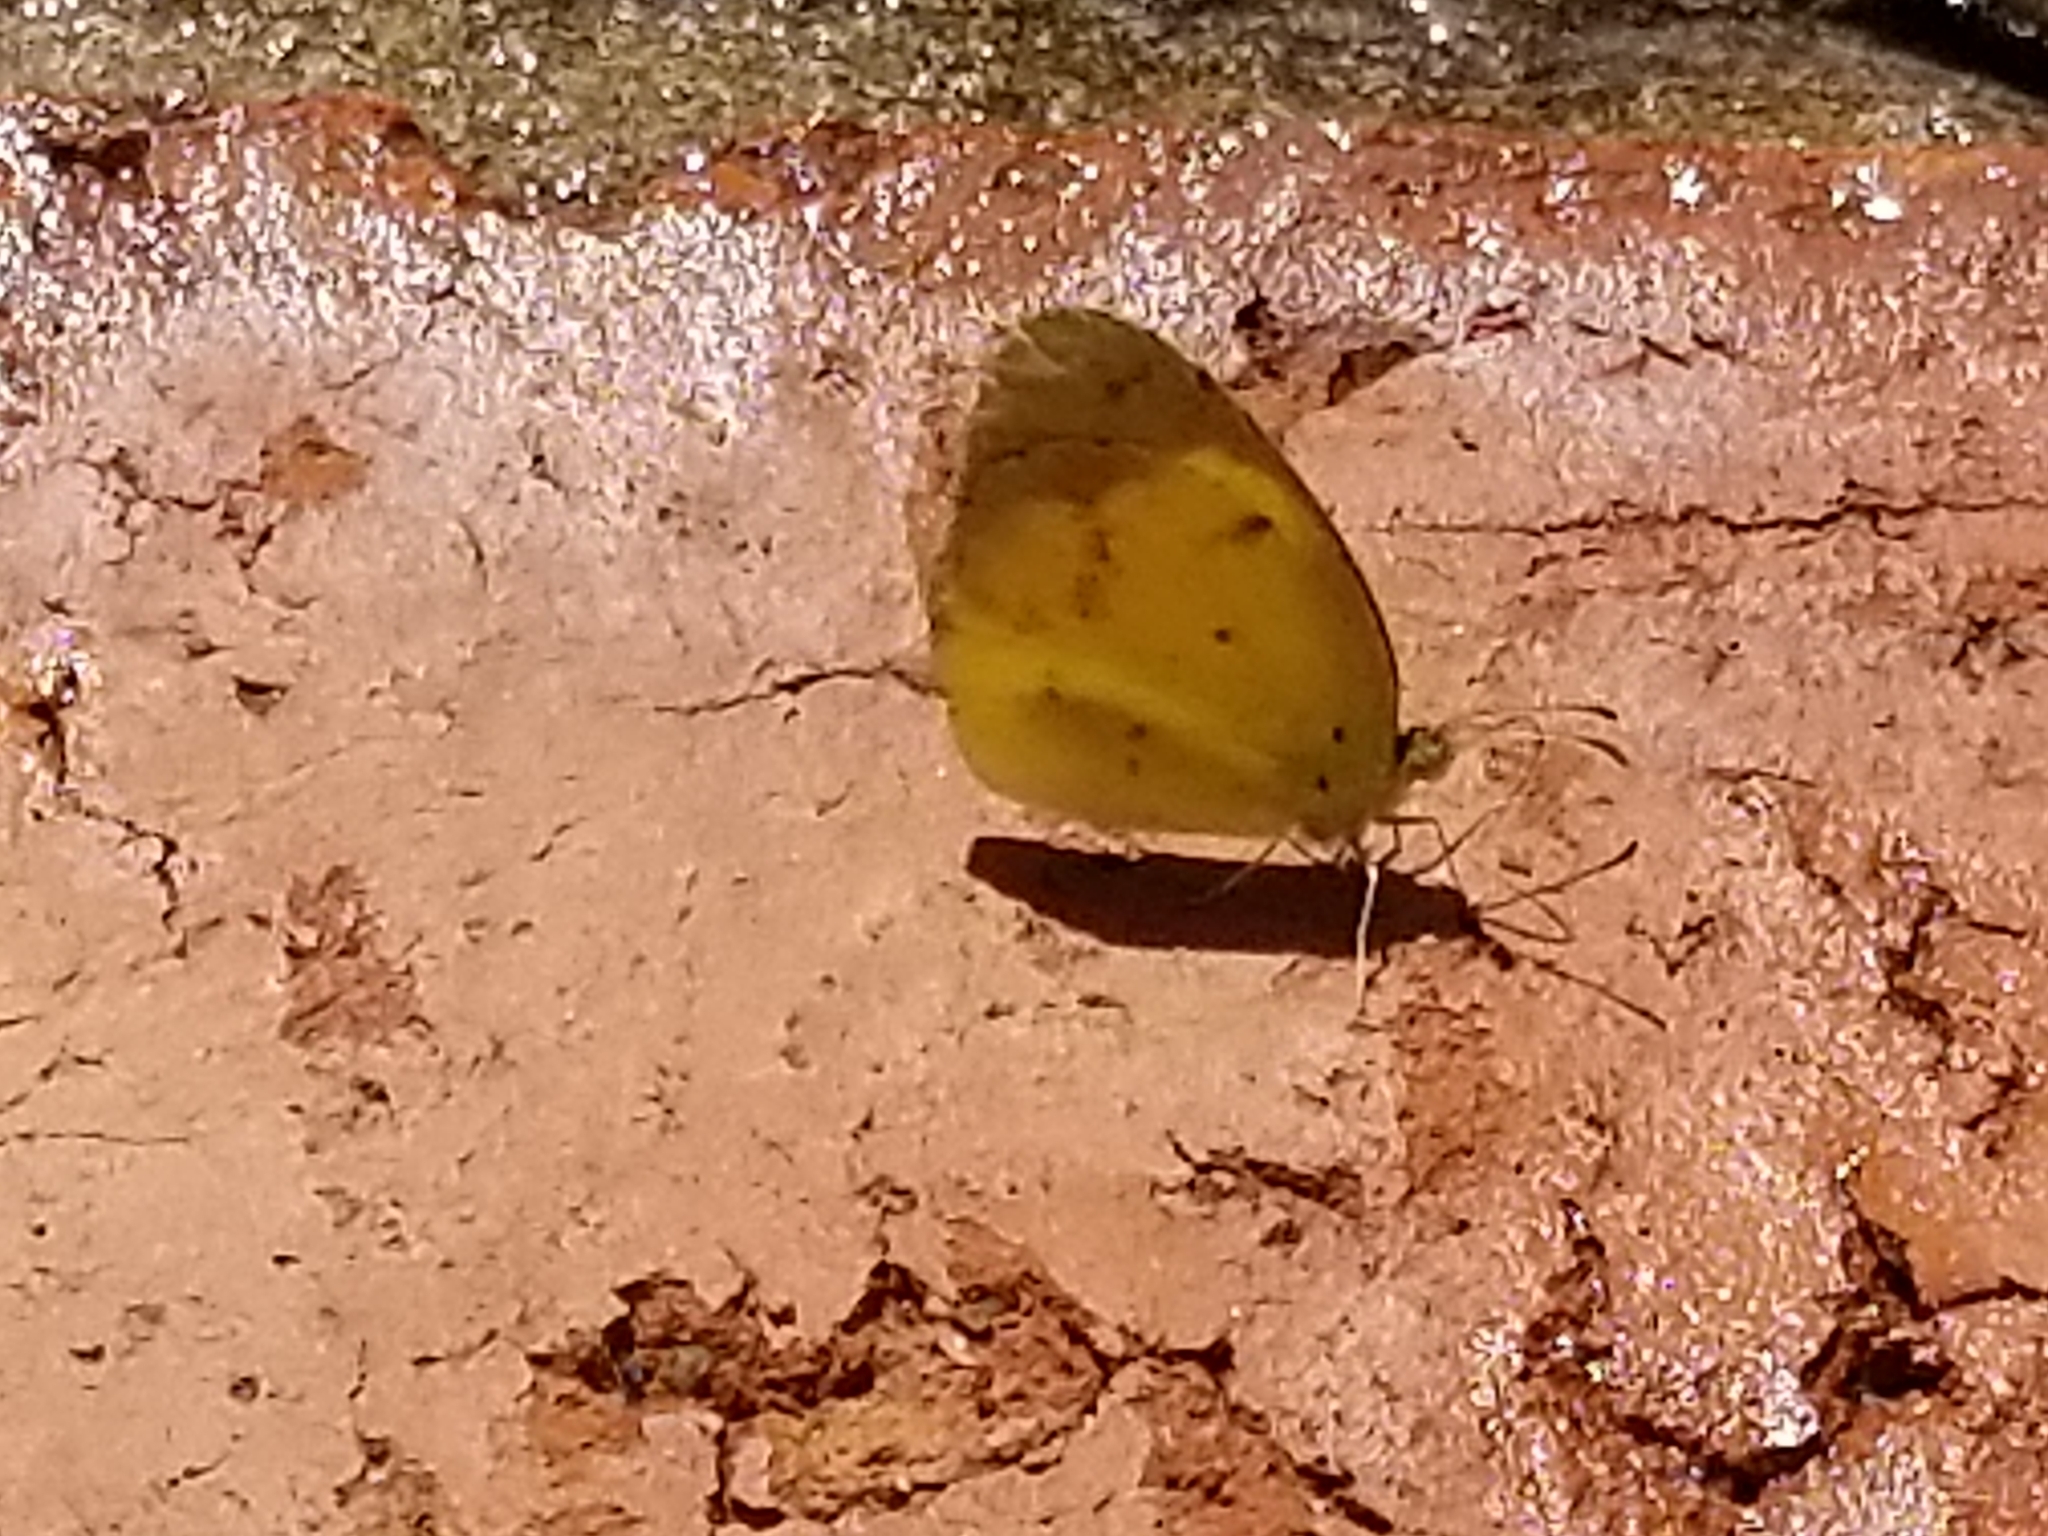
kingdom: Animalia
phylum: Arthropoda
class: Insecta
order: Lepidoptera
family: Pieridae
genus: Pyrisitia
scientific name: Pyrisitia lisa
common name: Little yellow
